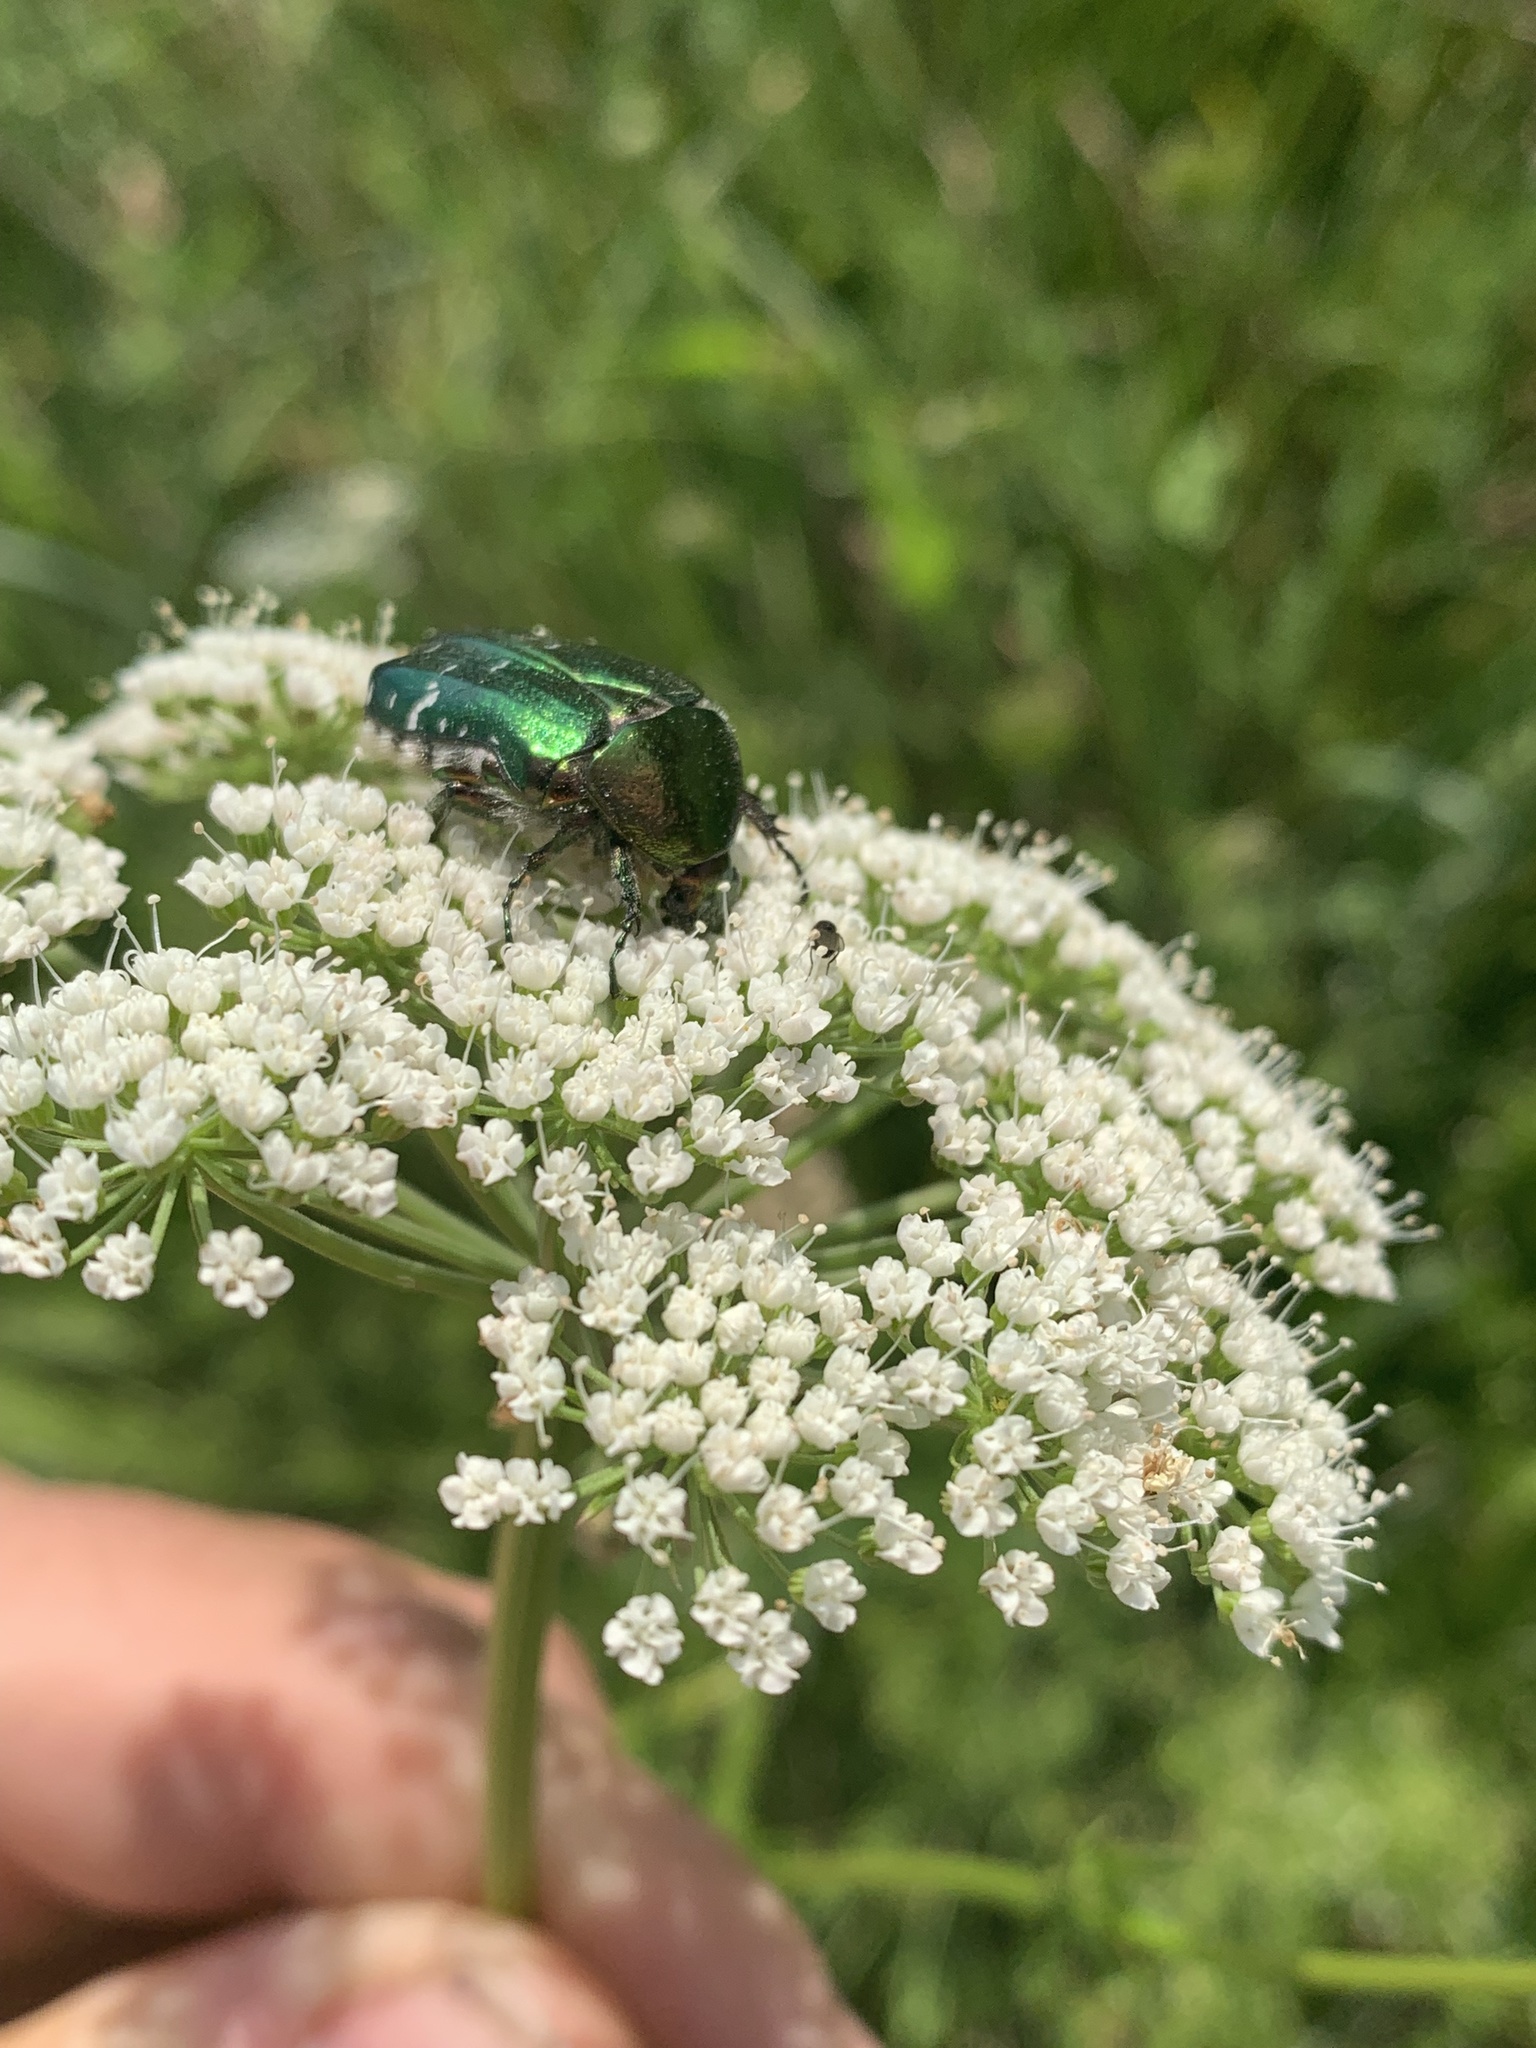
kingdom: Animalia
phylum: Arthropoda
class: Insecta
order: Coleoptera
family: Scarabaeidae
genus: Cetonia
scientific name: Cetonia aurata
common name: Rose chafer
